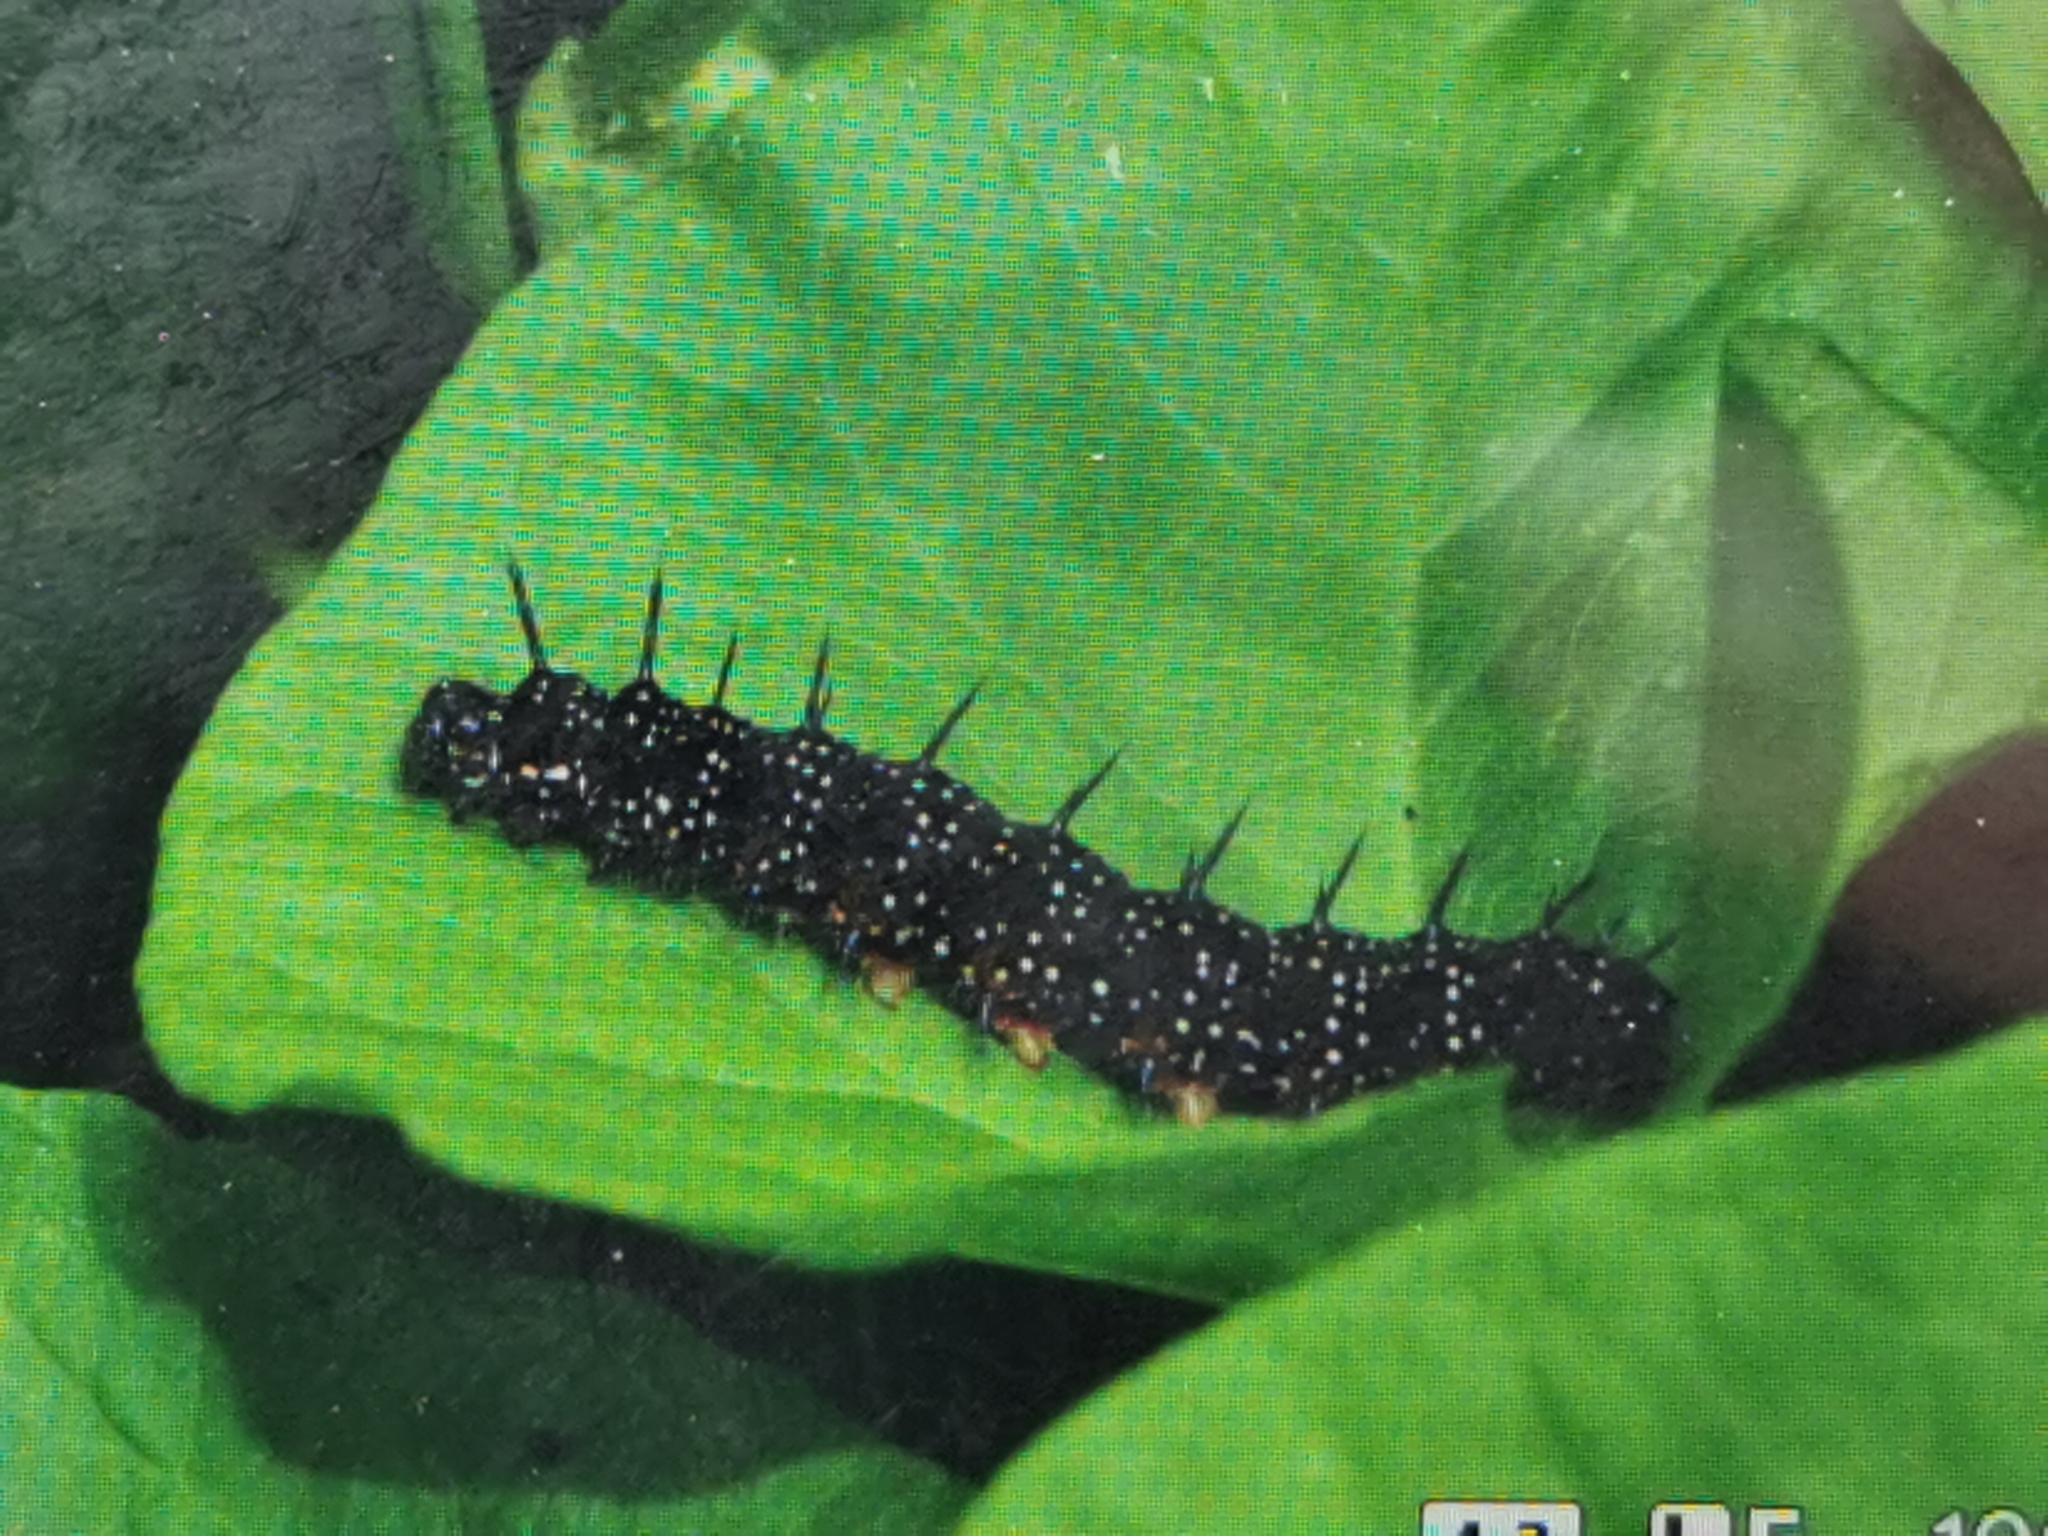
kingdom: Animalia
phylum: Arthropoda
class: Insecta
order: Lepidoptera
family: Nymphalidae
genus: Aglais
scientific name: Aglais io
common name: Peacock
